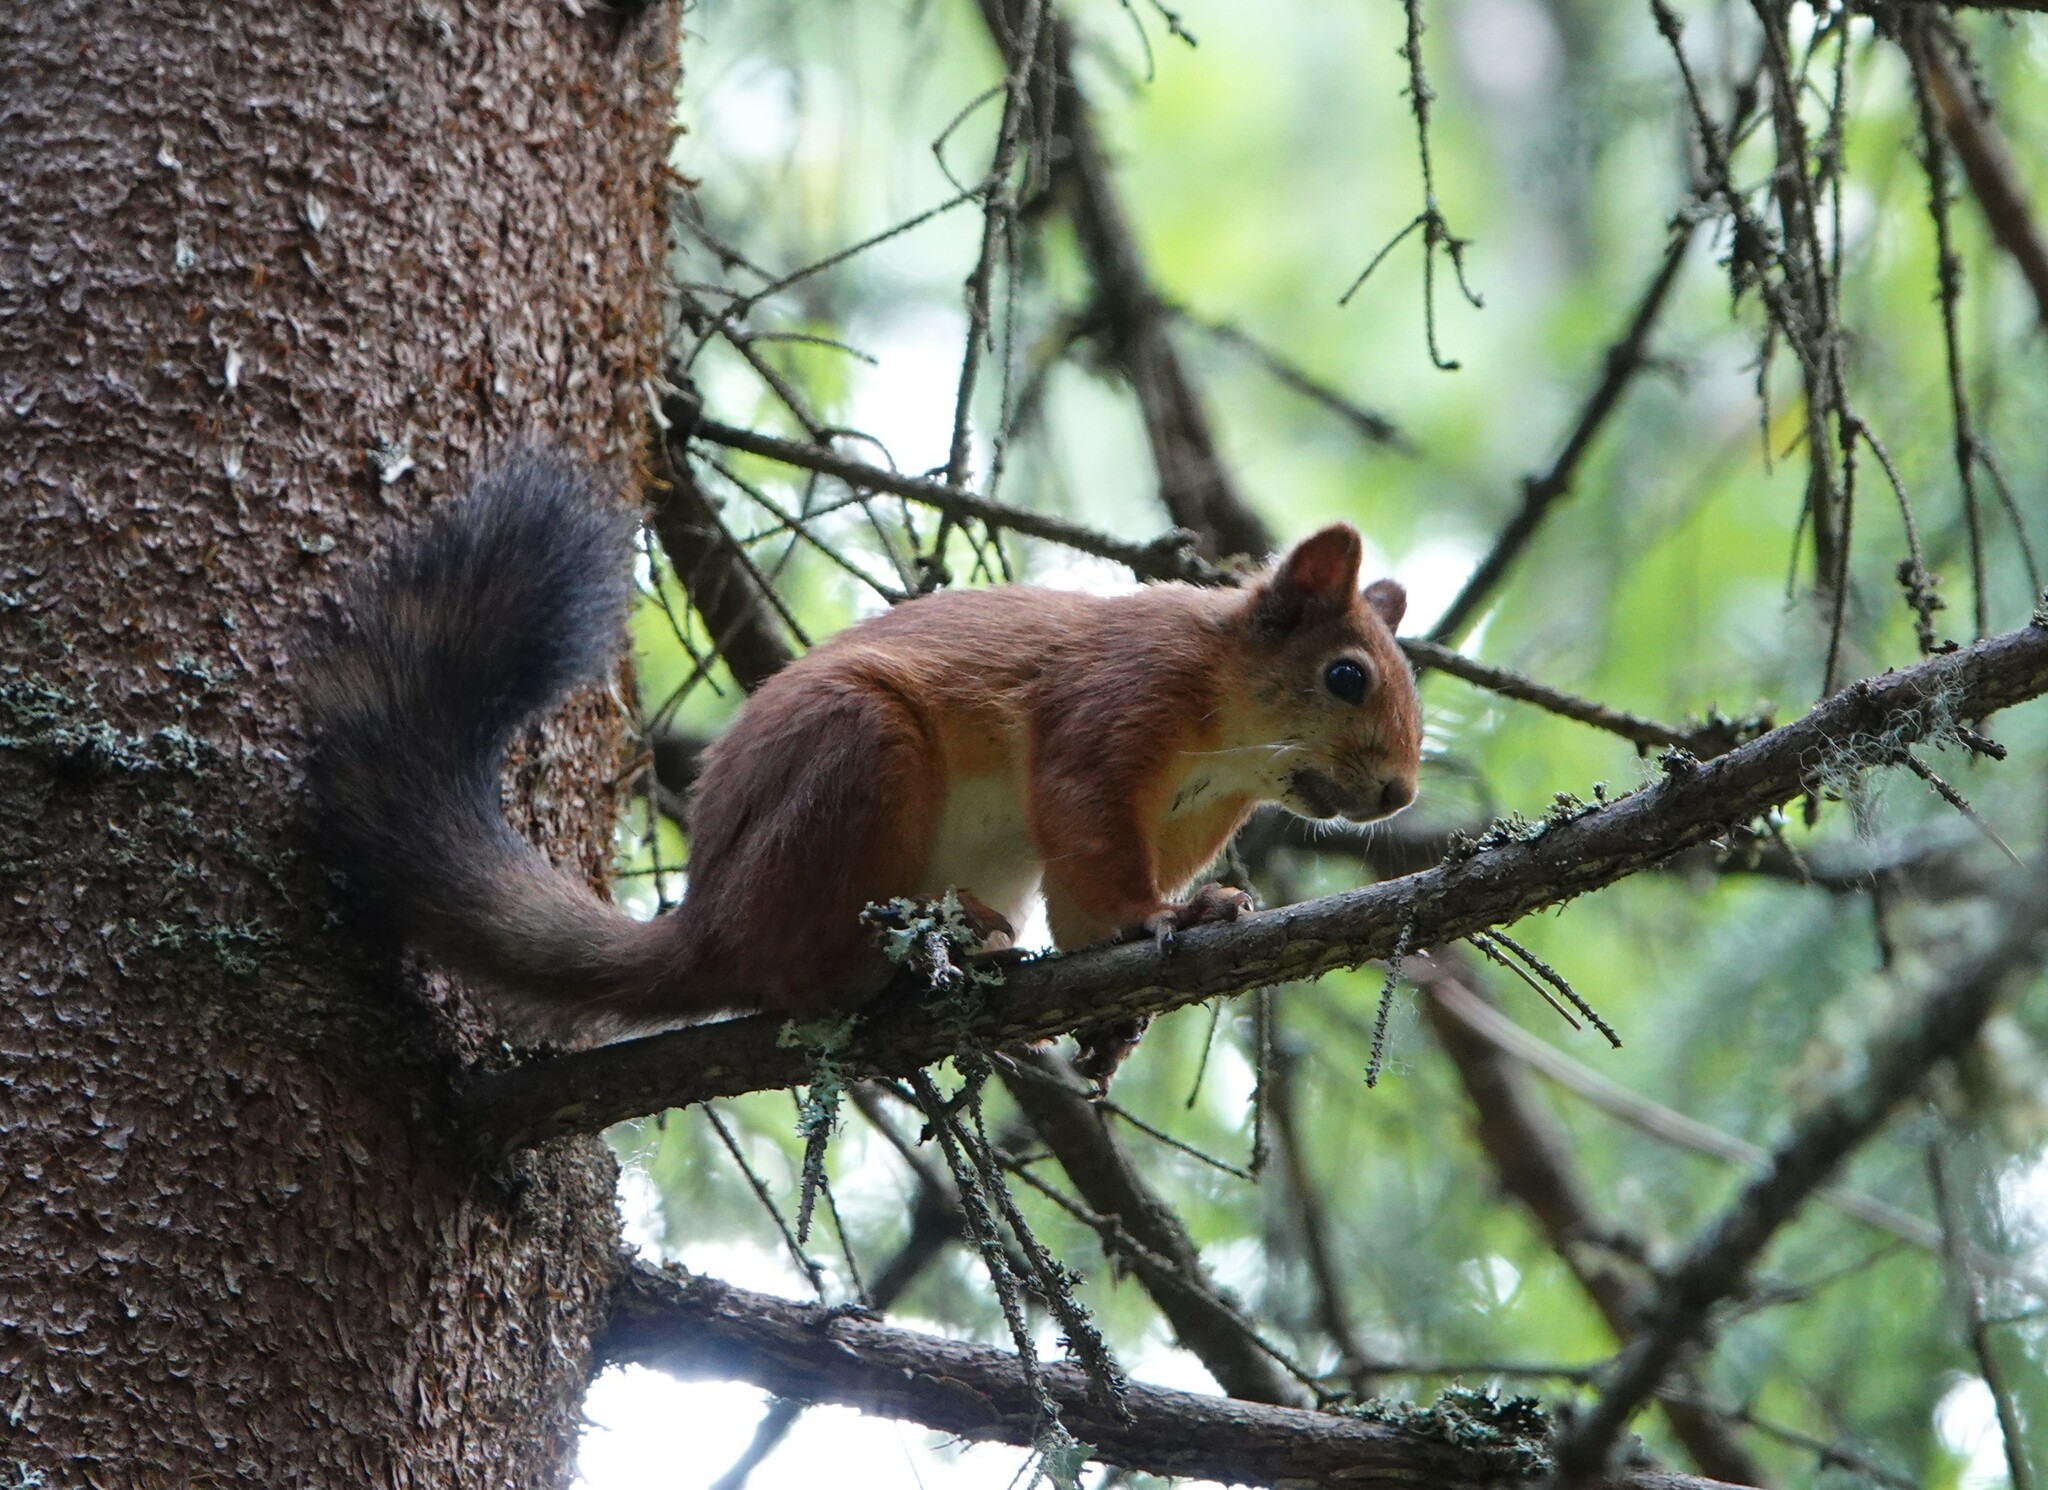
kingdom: Animalia
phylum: Chordata
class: Mammalia
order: Rodentia
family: Sciuridae
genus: Sciurus
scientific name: Sciurus vulgaris
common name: Eurasian red squirrel
